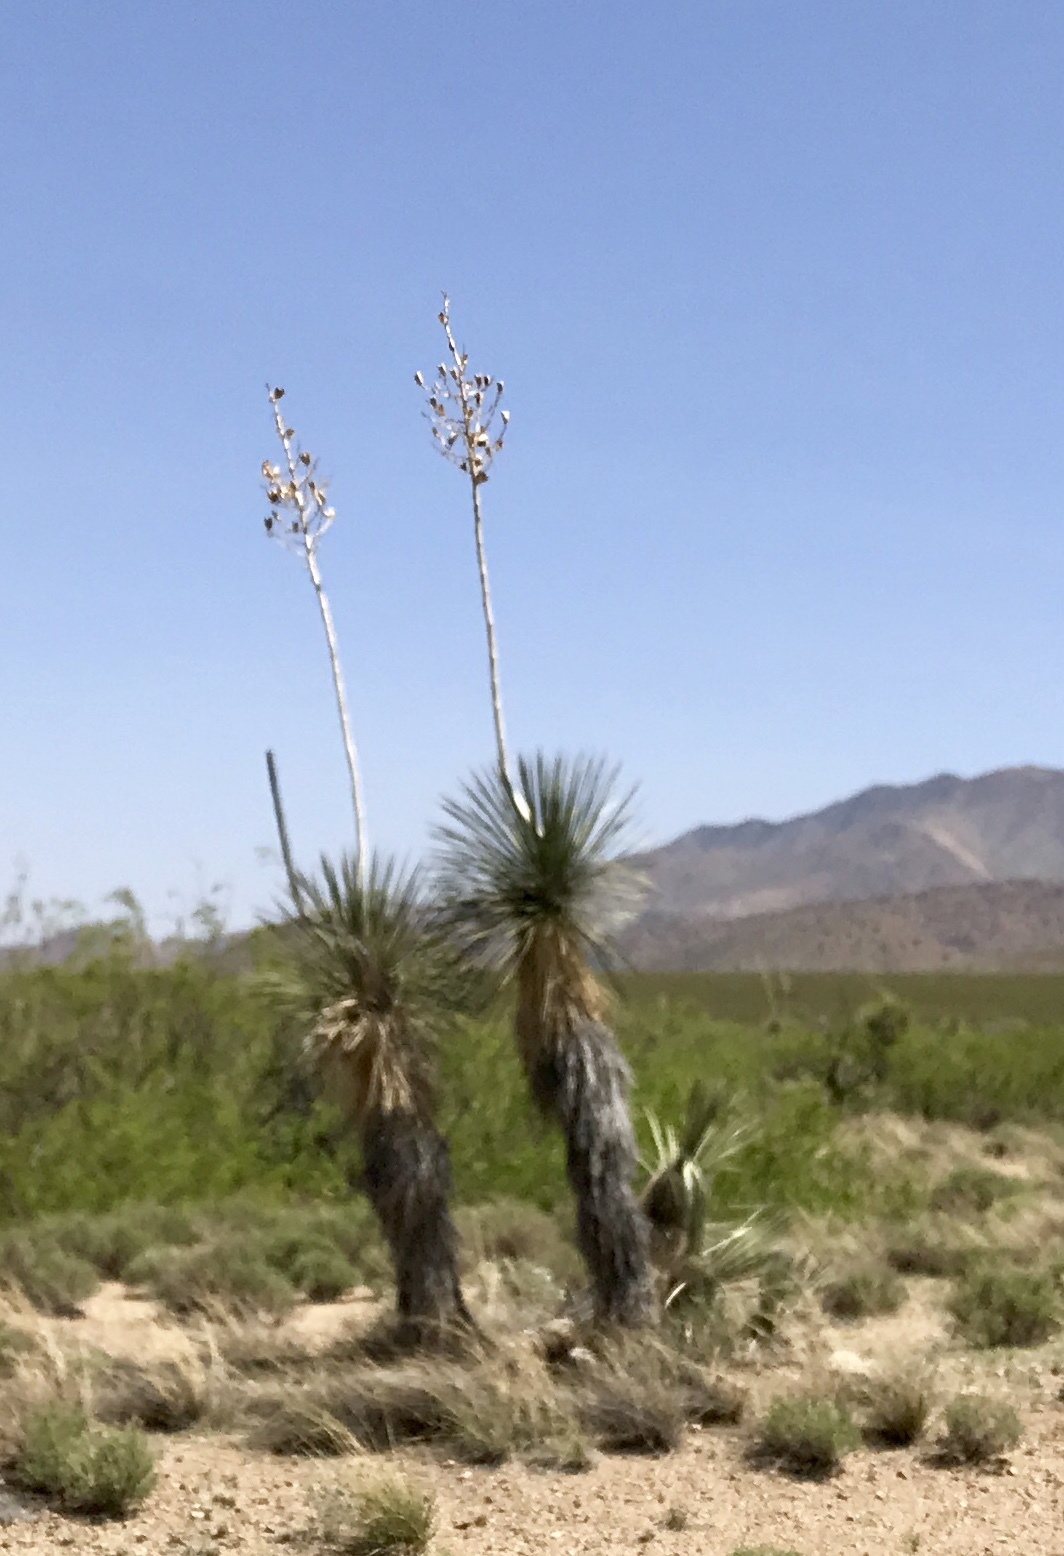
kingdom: Plantae
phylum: Tracheophyta
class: Liliopsida
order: Asparagales
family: Asparagaceae
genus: Yucca
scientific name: Yucca elata
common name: Palmella
